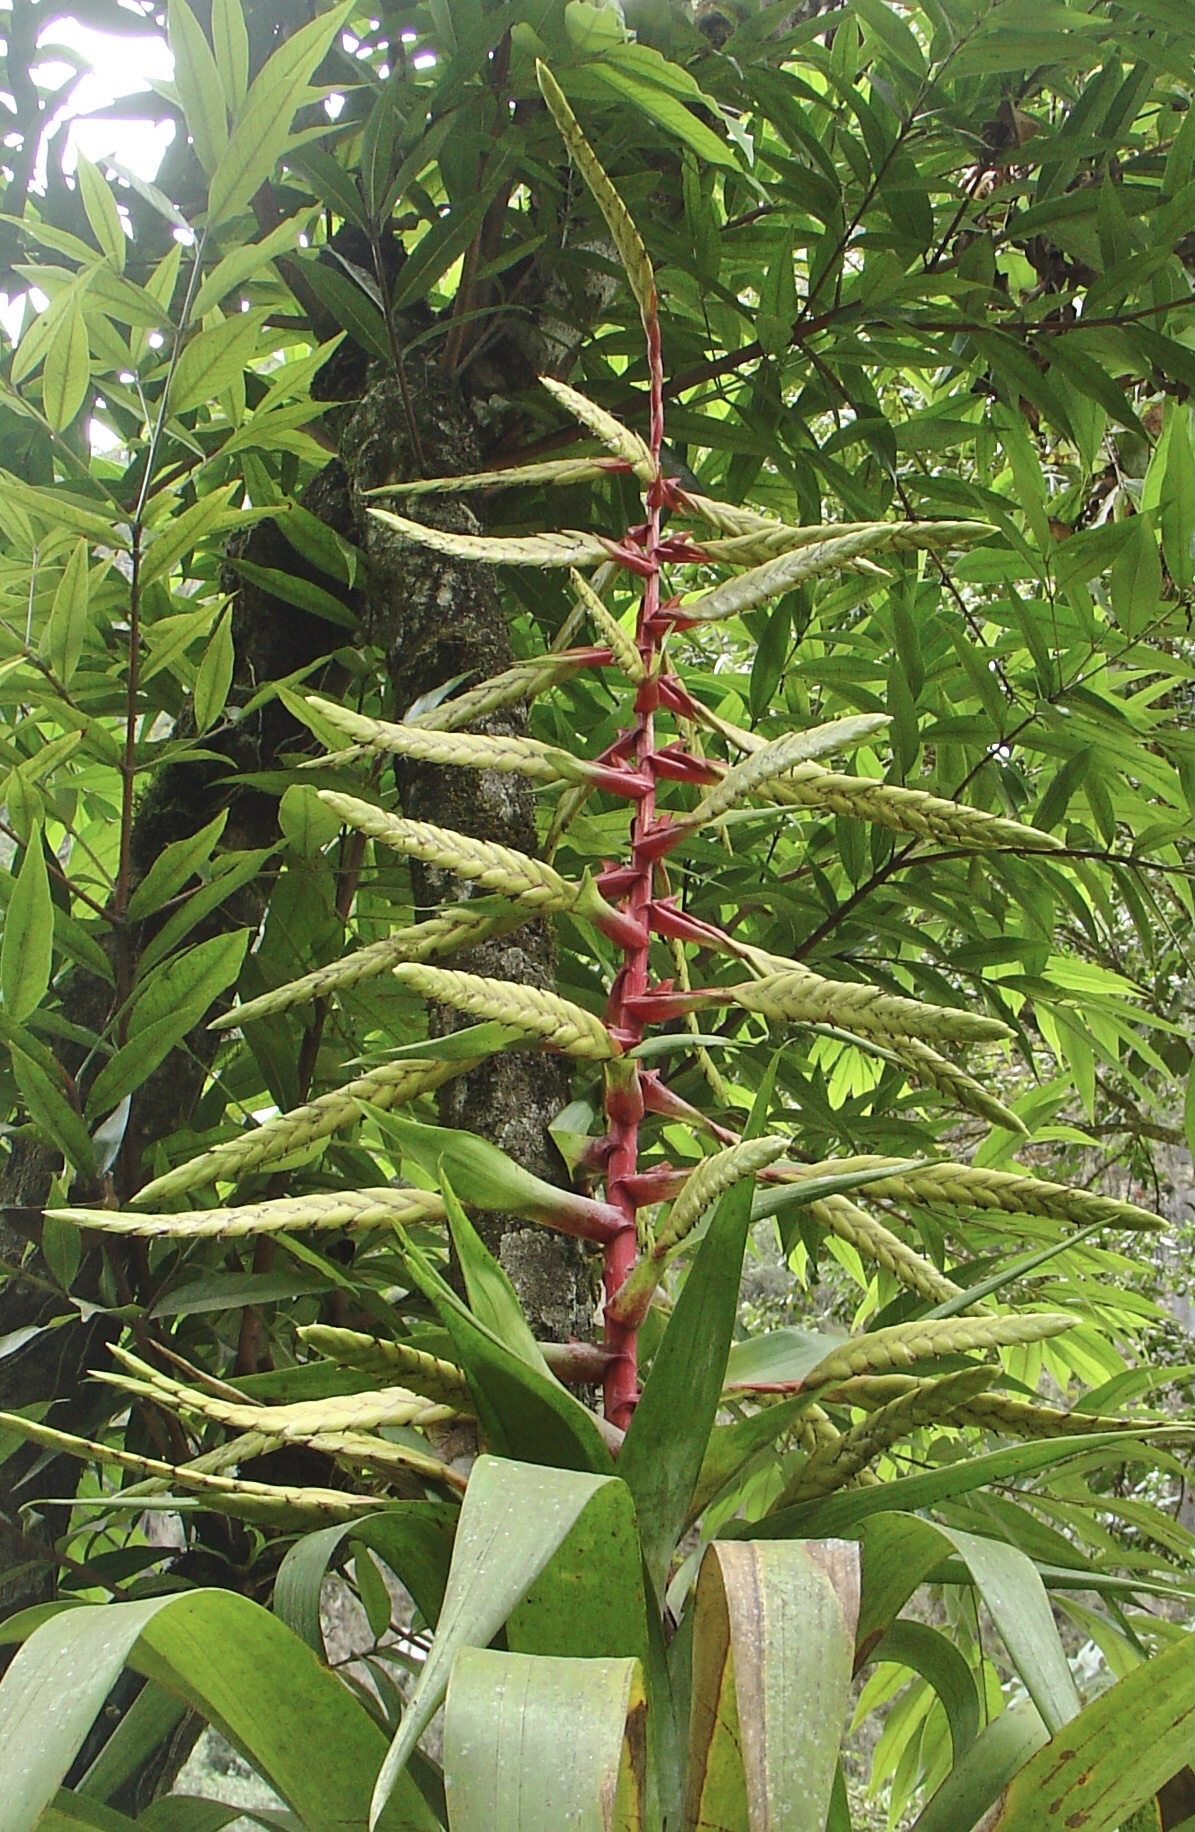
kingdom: Plantae
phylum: Tracheophyta
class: Liliopsida
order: Poales
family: Bromeliaceae
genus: Tillandsia
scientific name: Tillandsia fendleri
